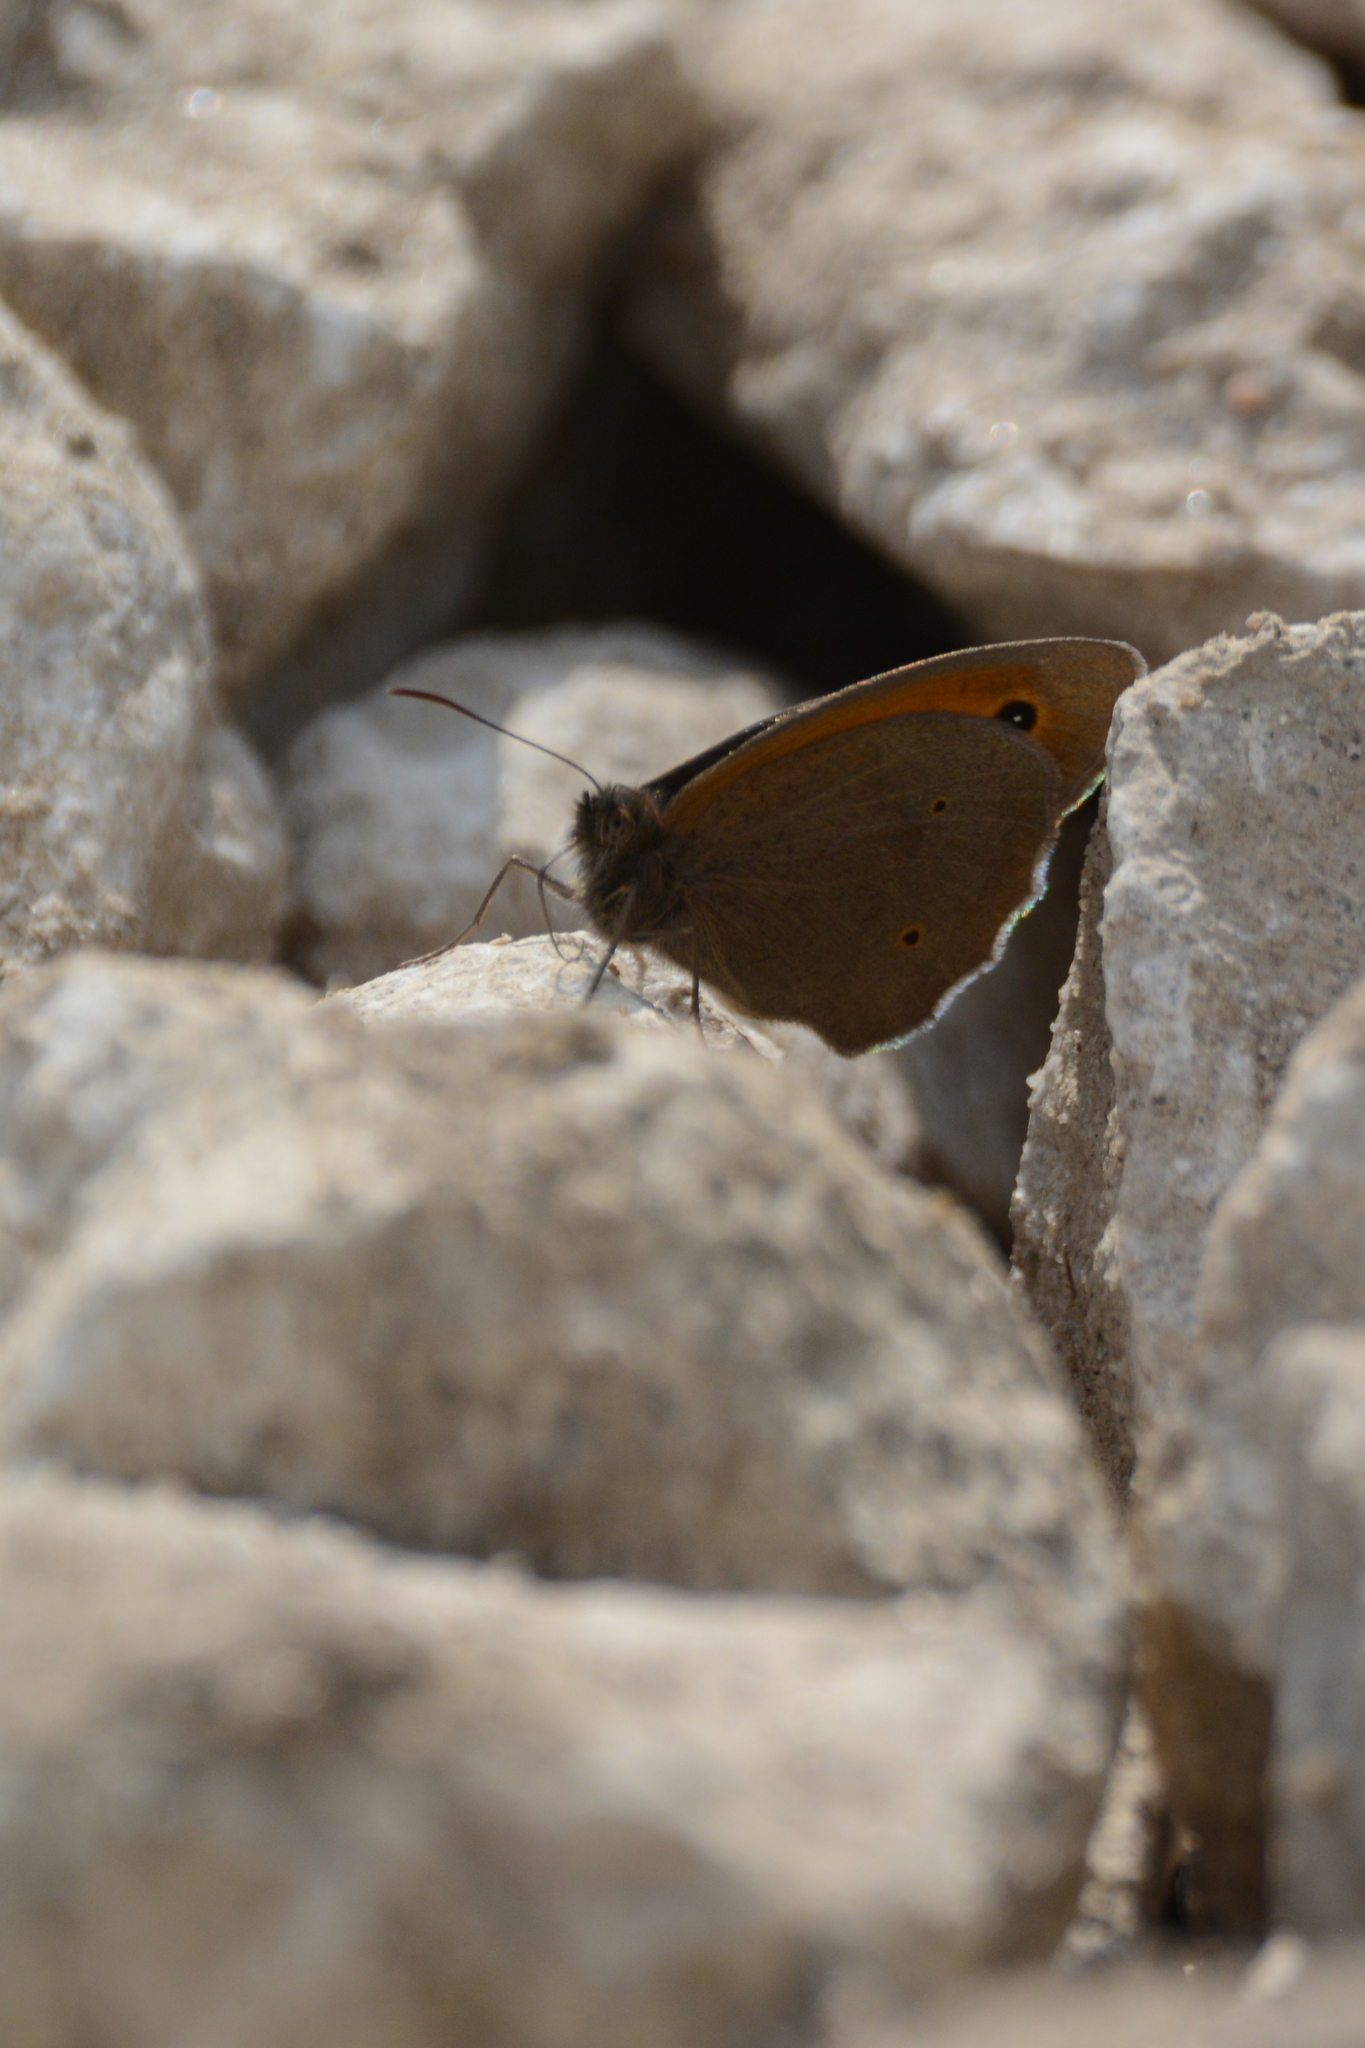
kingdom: Animalia
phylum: Arthropoda
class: Insecta
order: Lepidoptera
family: Nymphalidae
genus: Maniola
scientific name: Maniola jurtina
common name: Meadow brown
